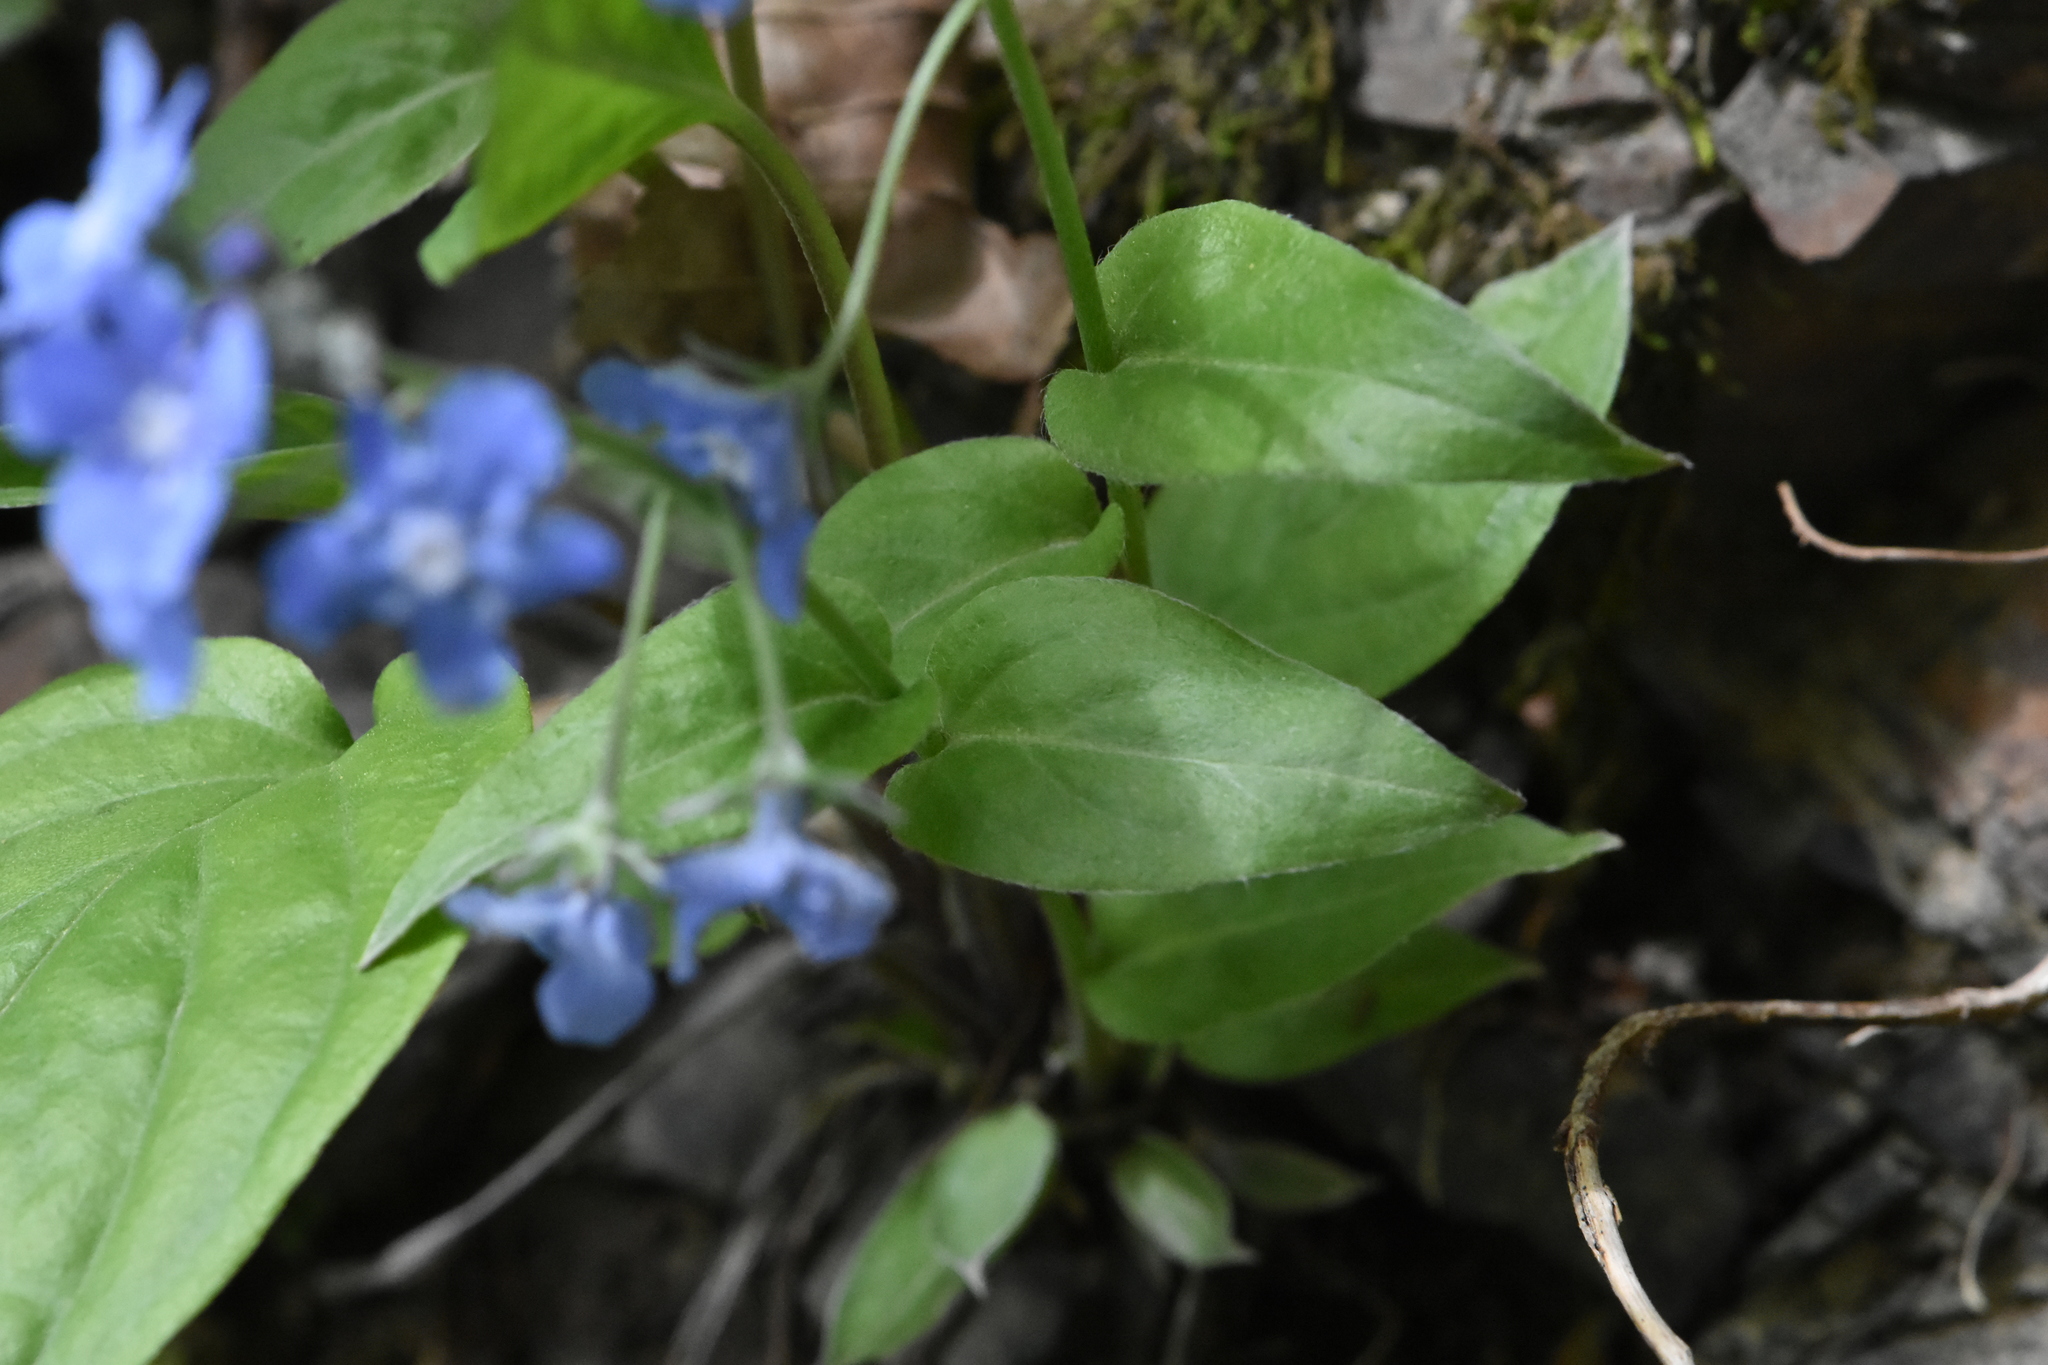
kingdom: Plantae
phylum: Tracheophyta
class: Magnoliopsida
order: Boraginales
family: Boraginaceae
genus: Omphalodes
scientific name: Omphalodes cappadocica
